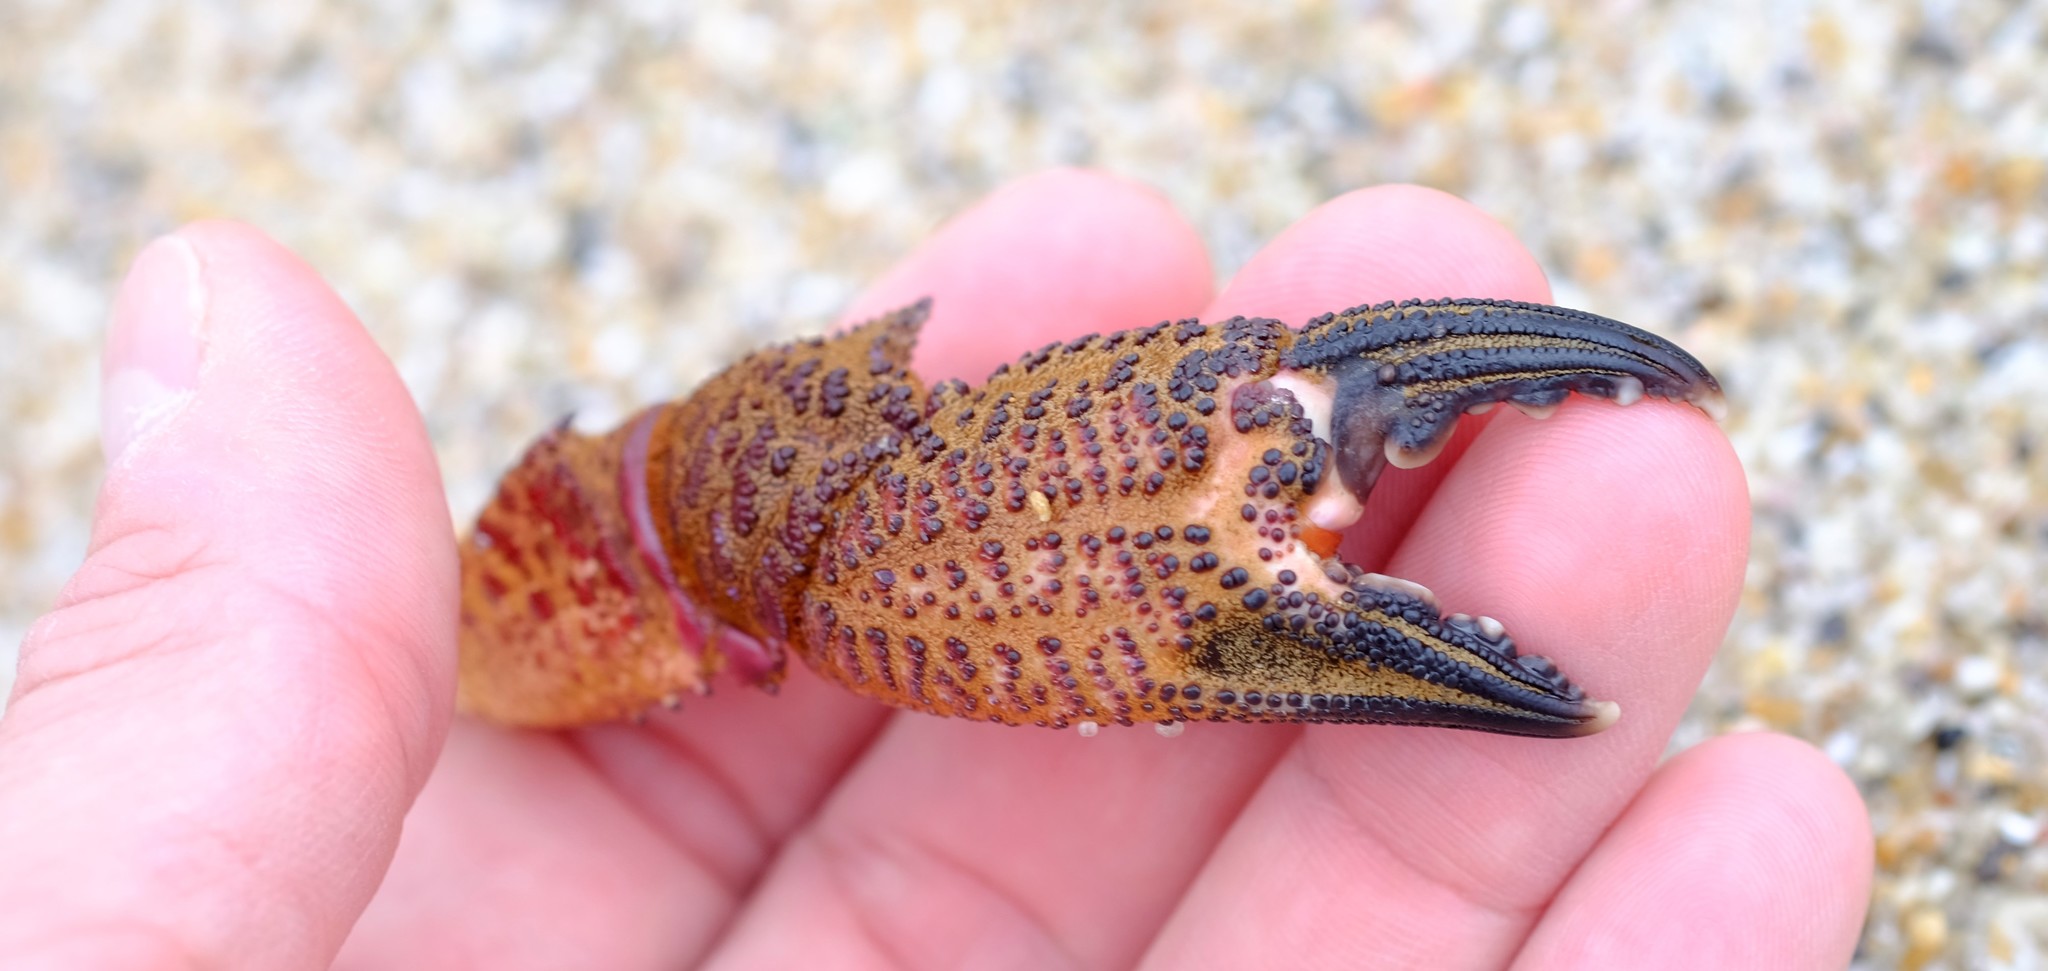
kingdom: Animalia
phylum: Arthropoda
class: Malacostraca
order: Decapoda
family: Geryonidae
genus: Nectocarcinus
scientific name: Nectocarcinus tuberculosus
